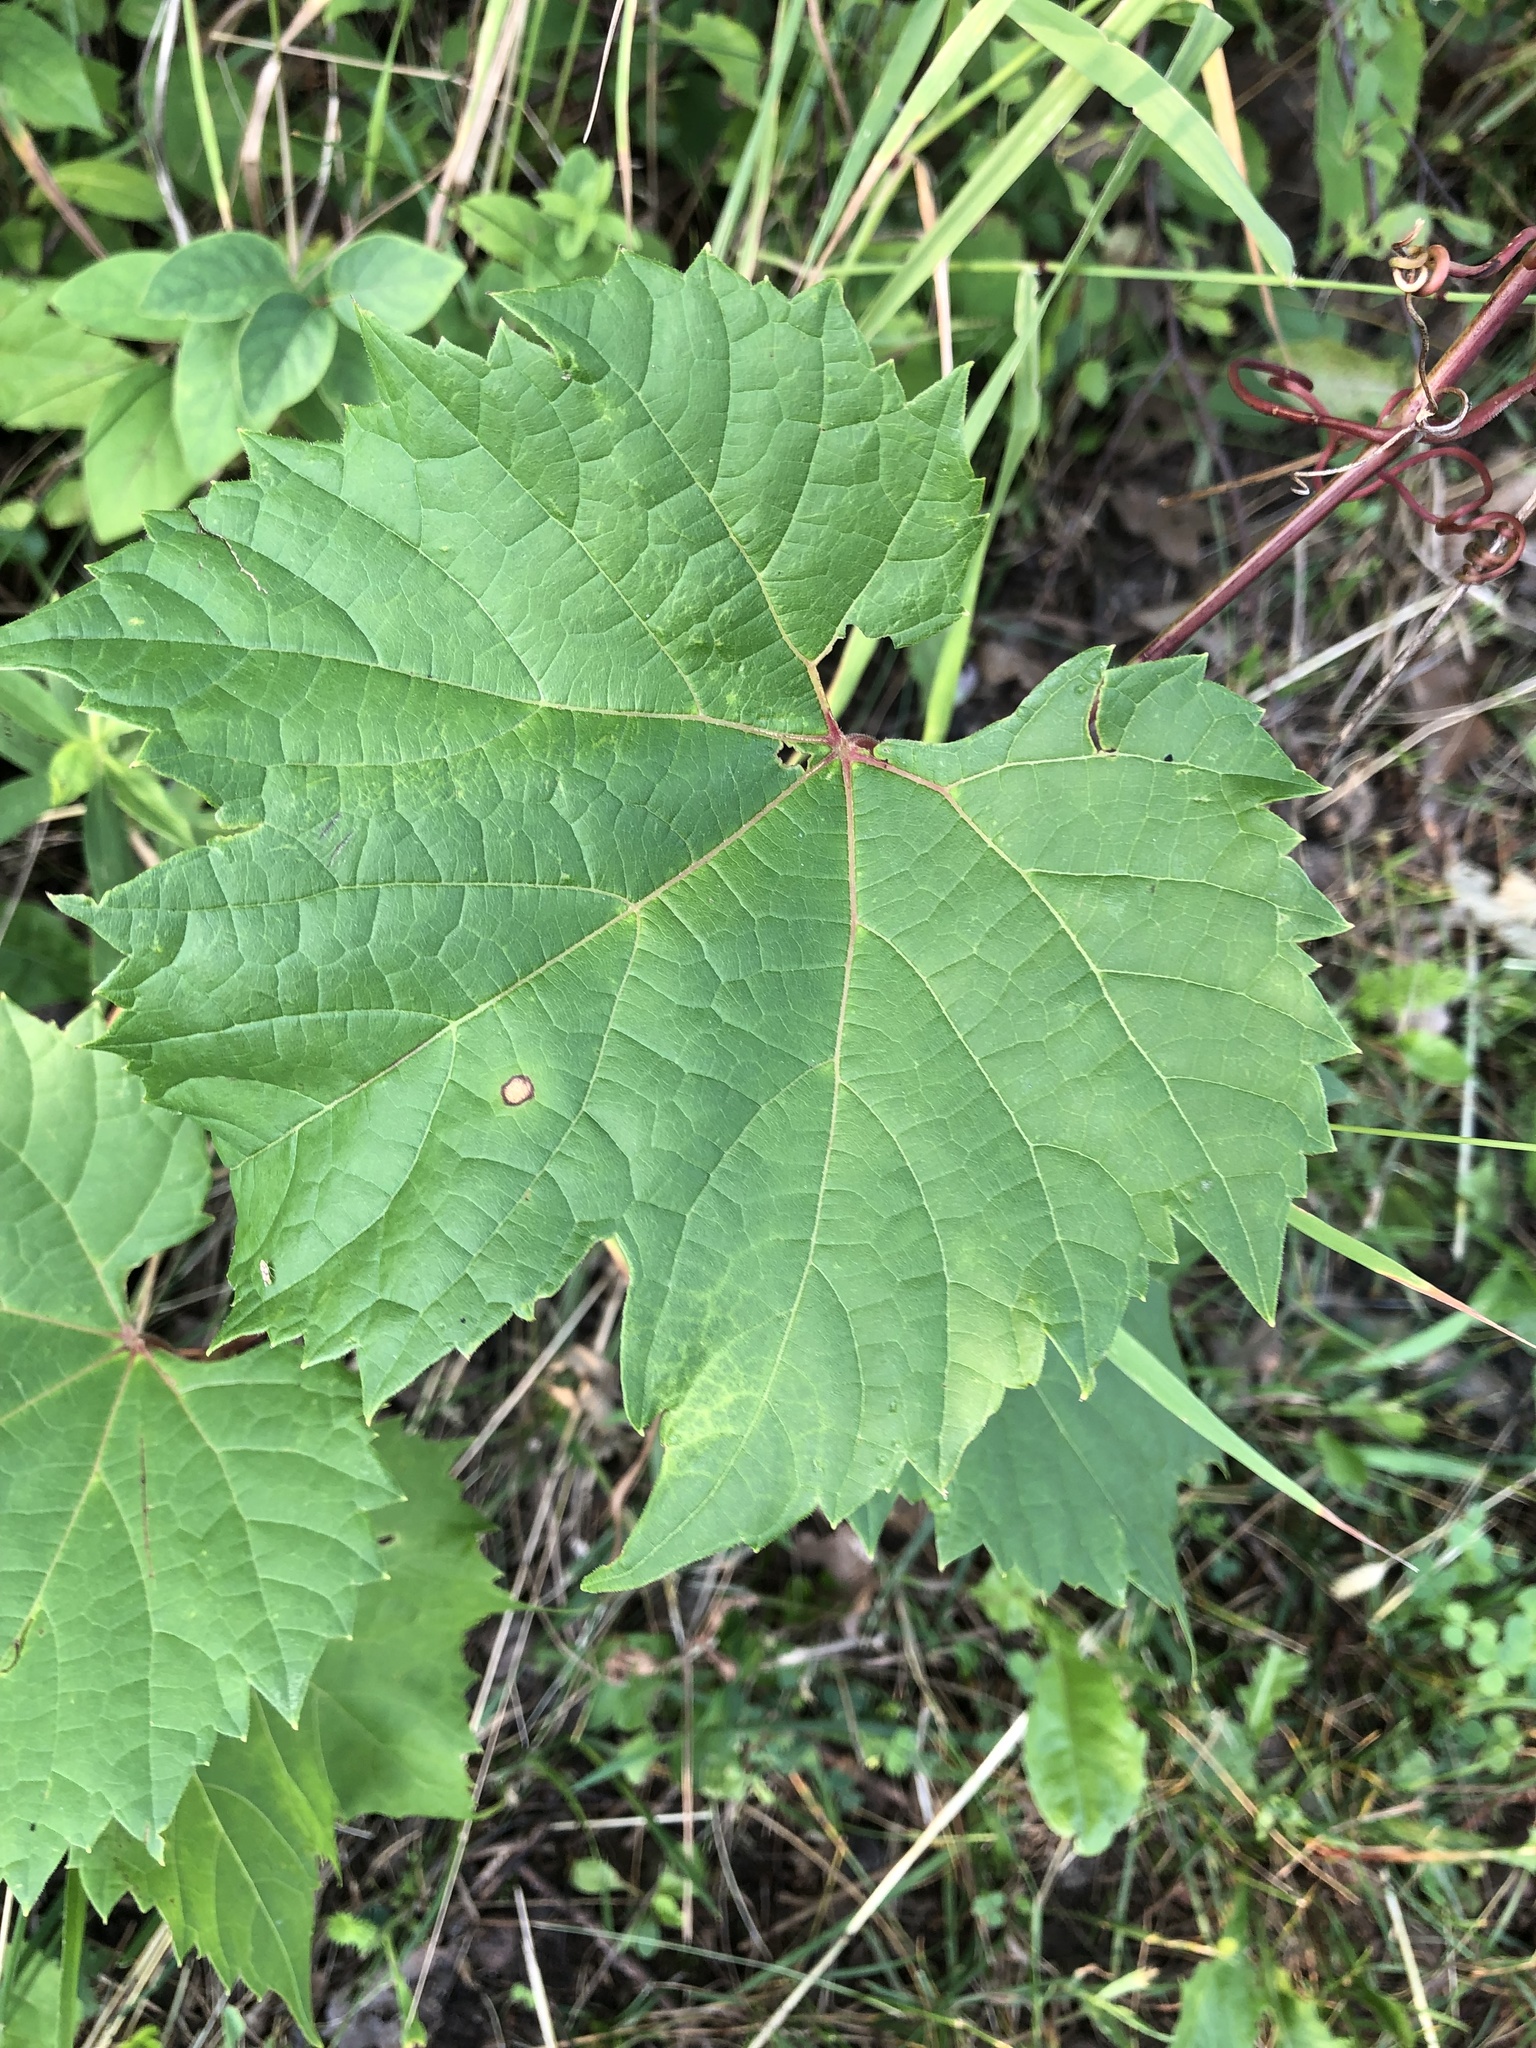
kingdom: Plantae
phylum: Tracheophyta
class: Magnoliopsida
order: Vitales
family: Vitaceae
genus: Vitis
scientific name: Vitis riparia
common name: Frost grape
